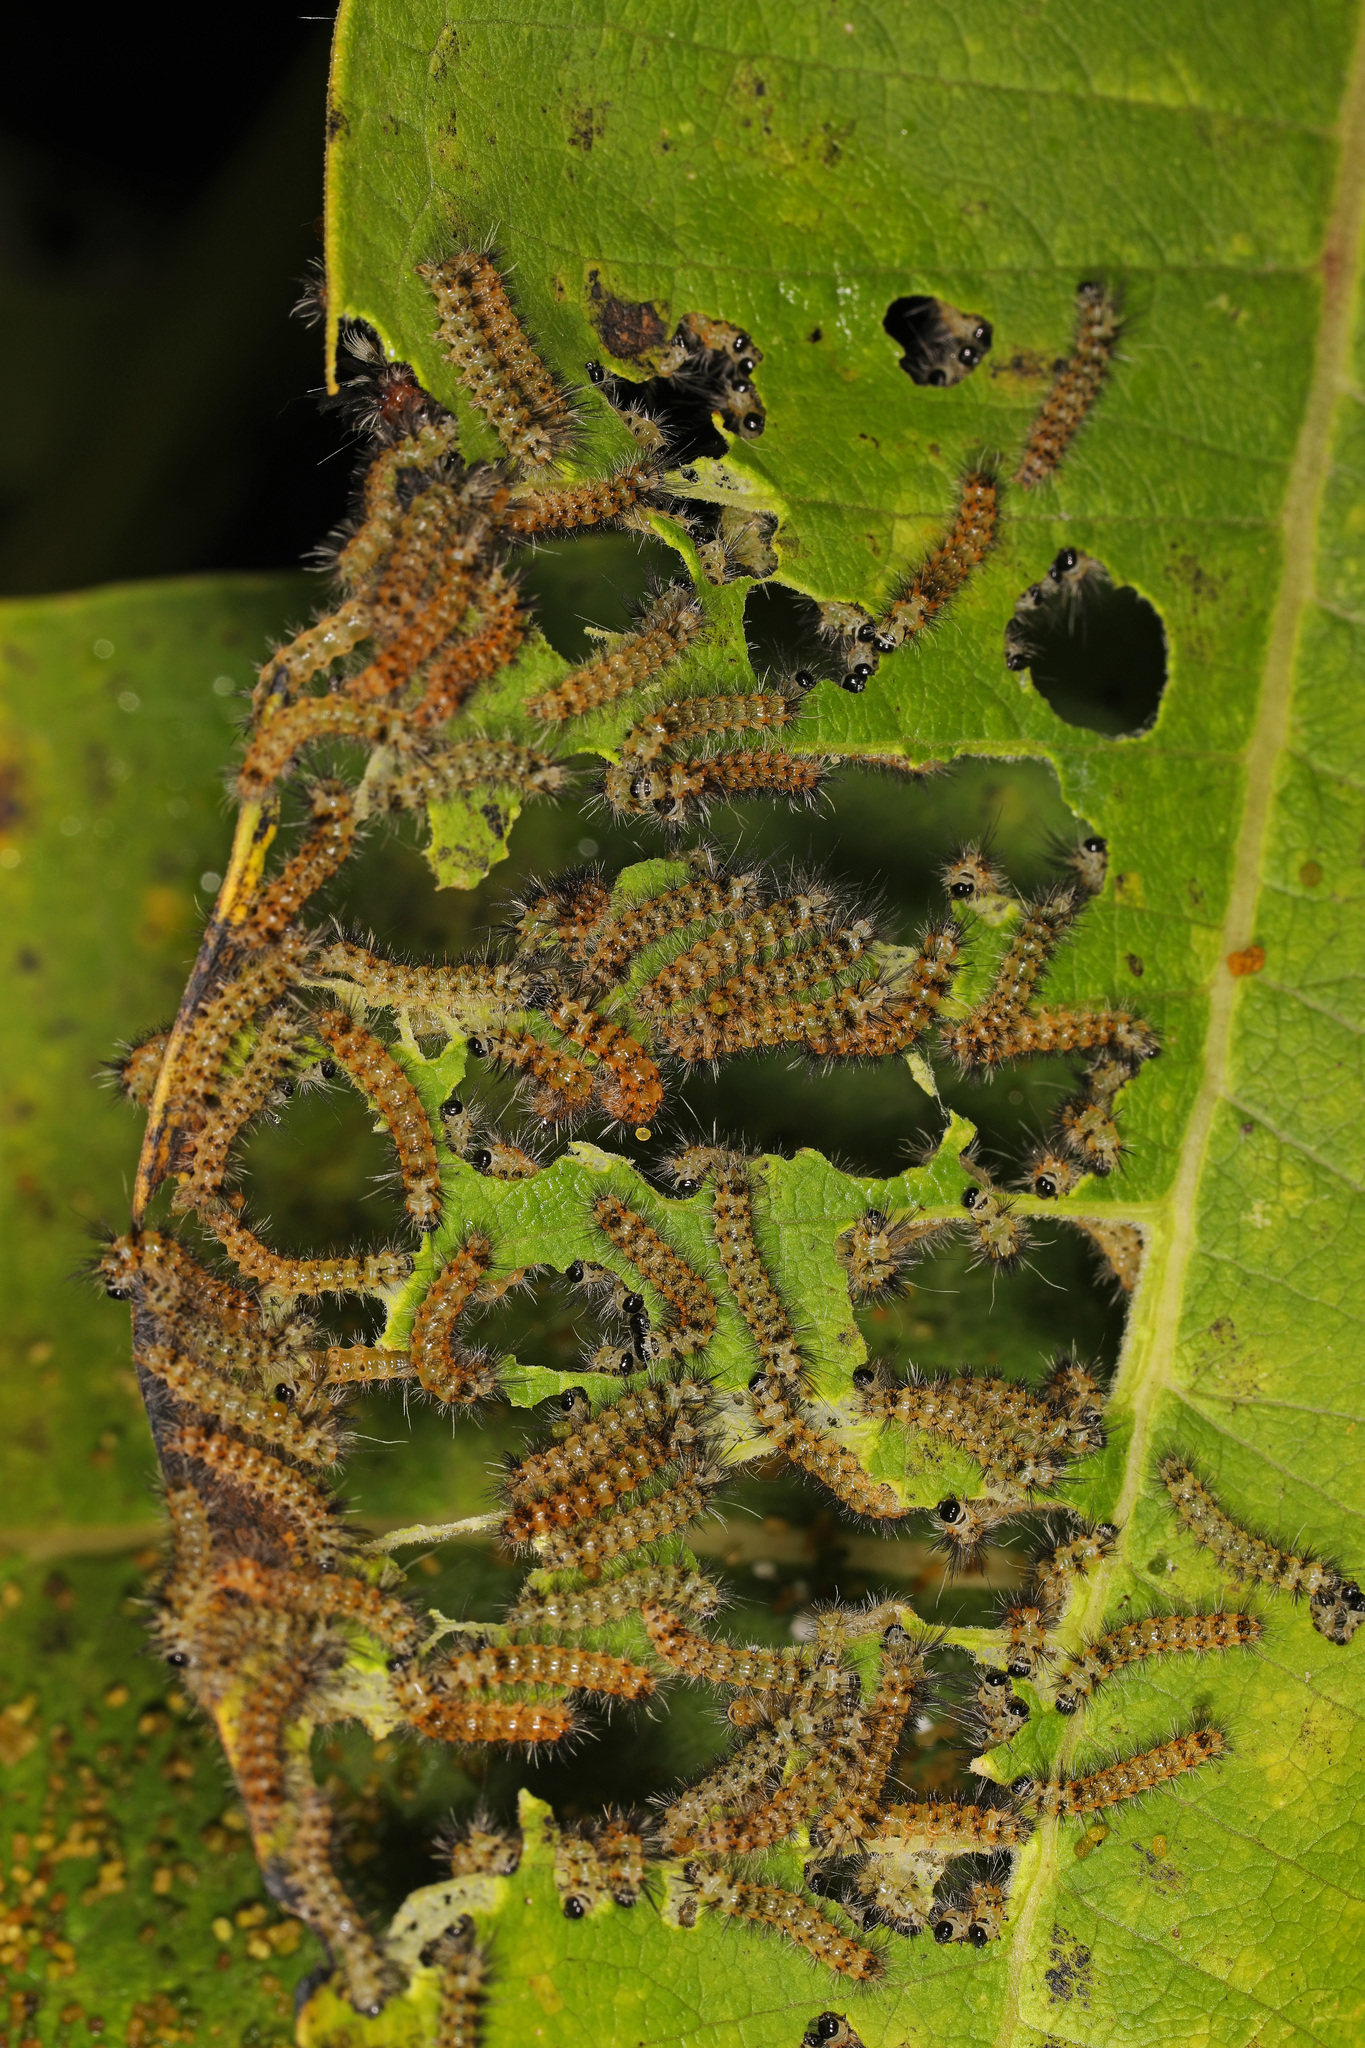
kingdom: Animalia
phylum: Arthropoda
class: Insecta
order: Lepidoptera
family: Erebidae
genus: Euchaetes
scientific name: Euchaetes egle
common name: Milkweed tussock moth
